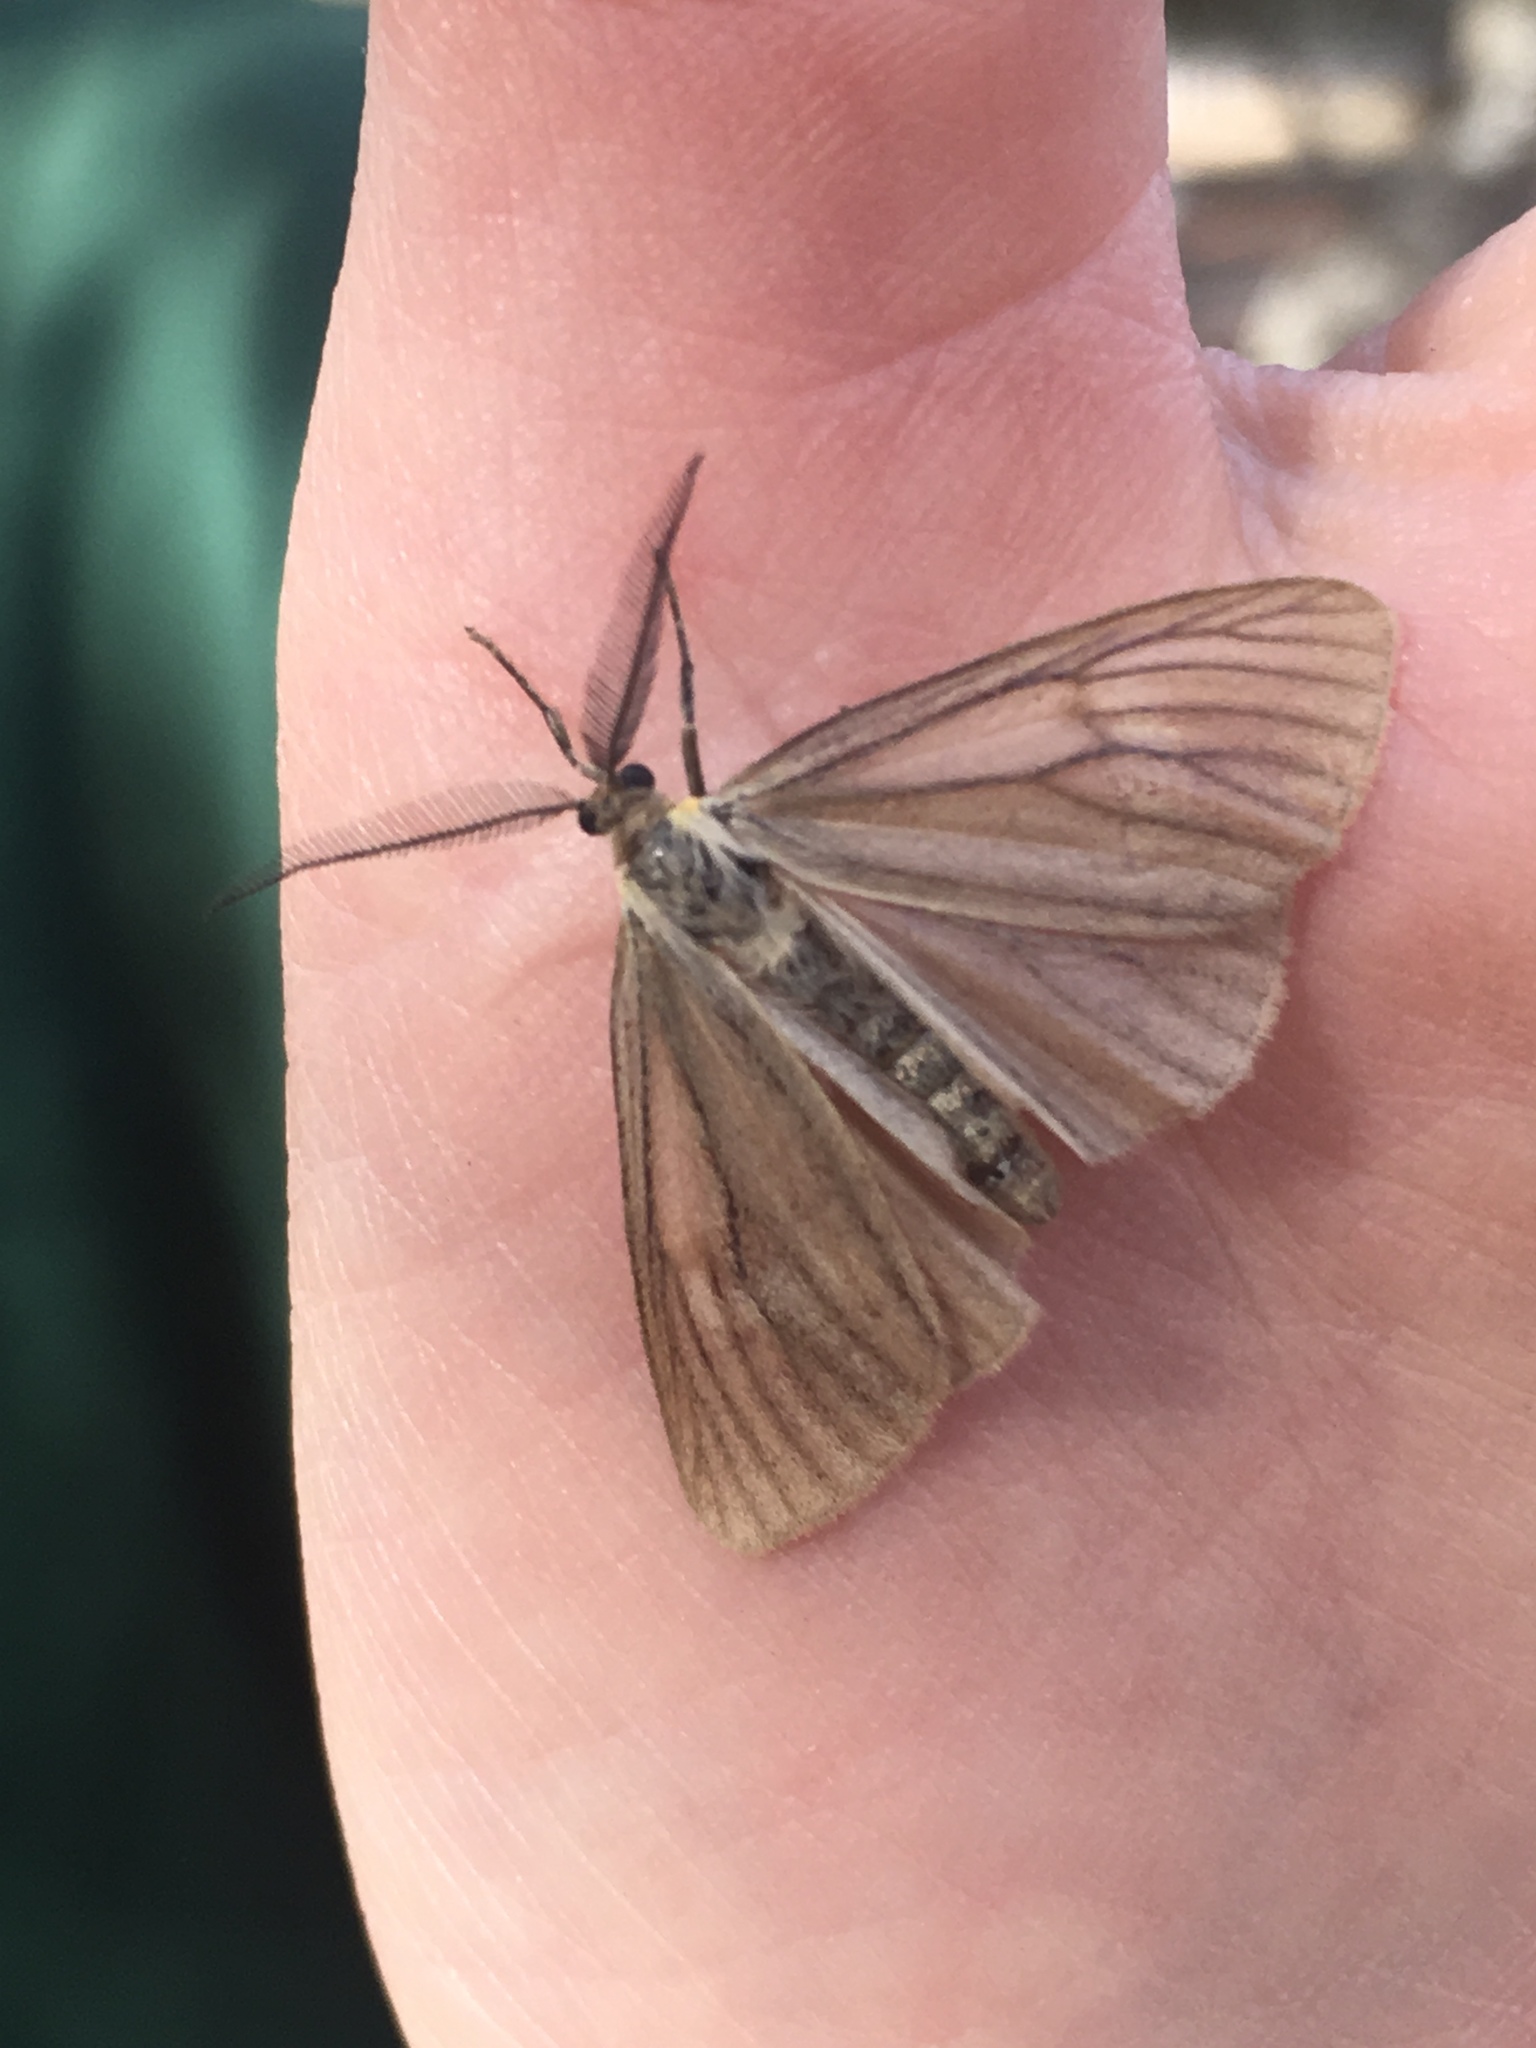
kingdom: Animalia
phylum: Arthropoda
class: Insecta
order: Lepidoptera
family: Notodontidae
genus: Phryganidia
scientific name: Phryganidia californica
